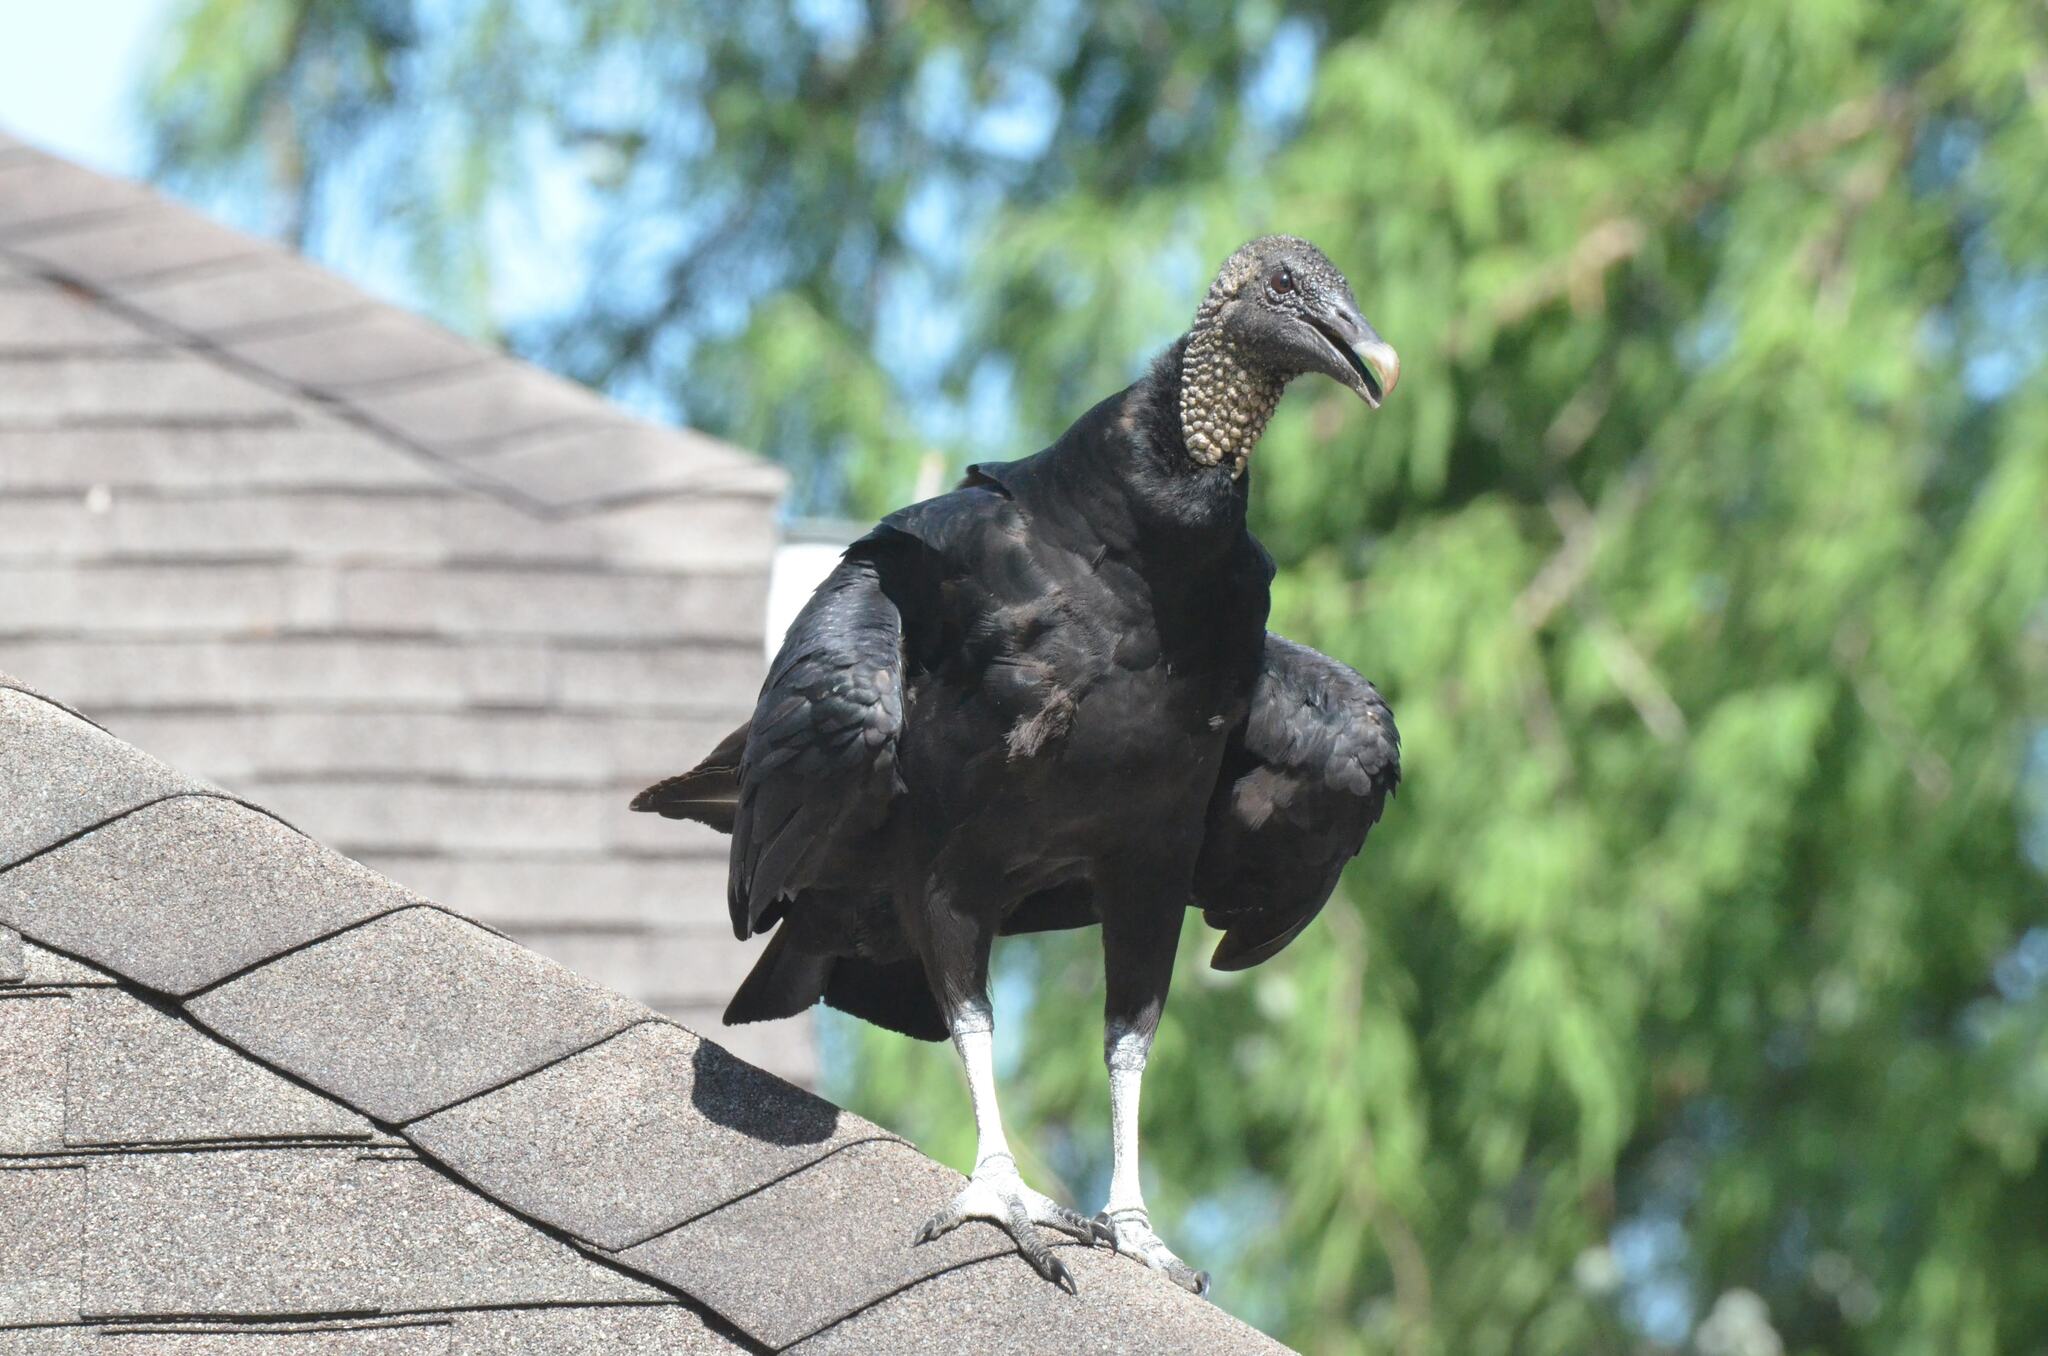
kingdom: Animalia
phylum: Chordata
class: Aves
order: Accipitriformes
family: Cathartidae
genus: Coragyps
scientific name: Coragyps atratus
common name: Black vulture
